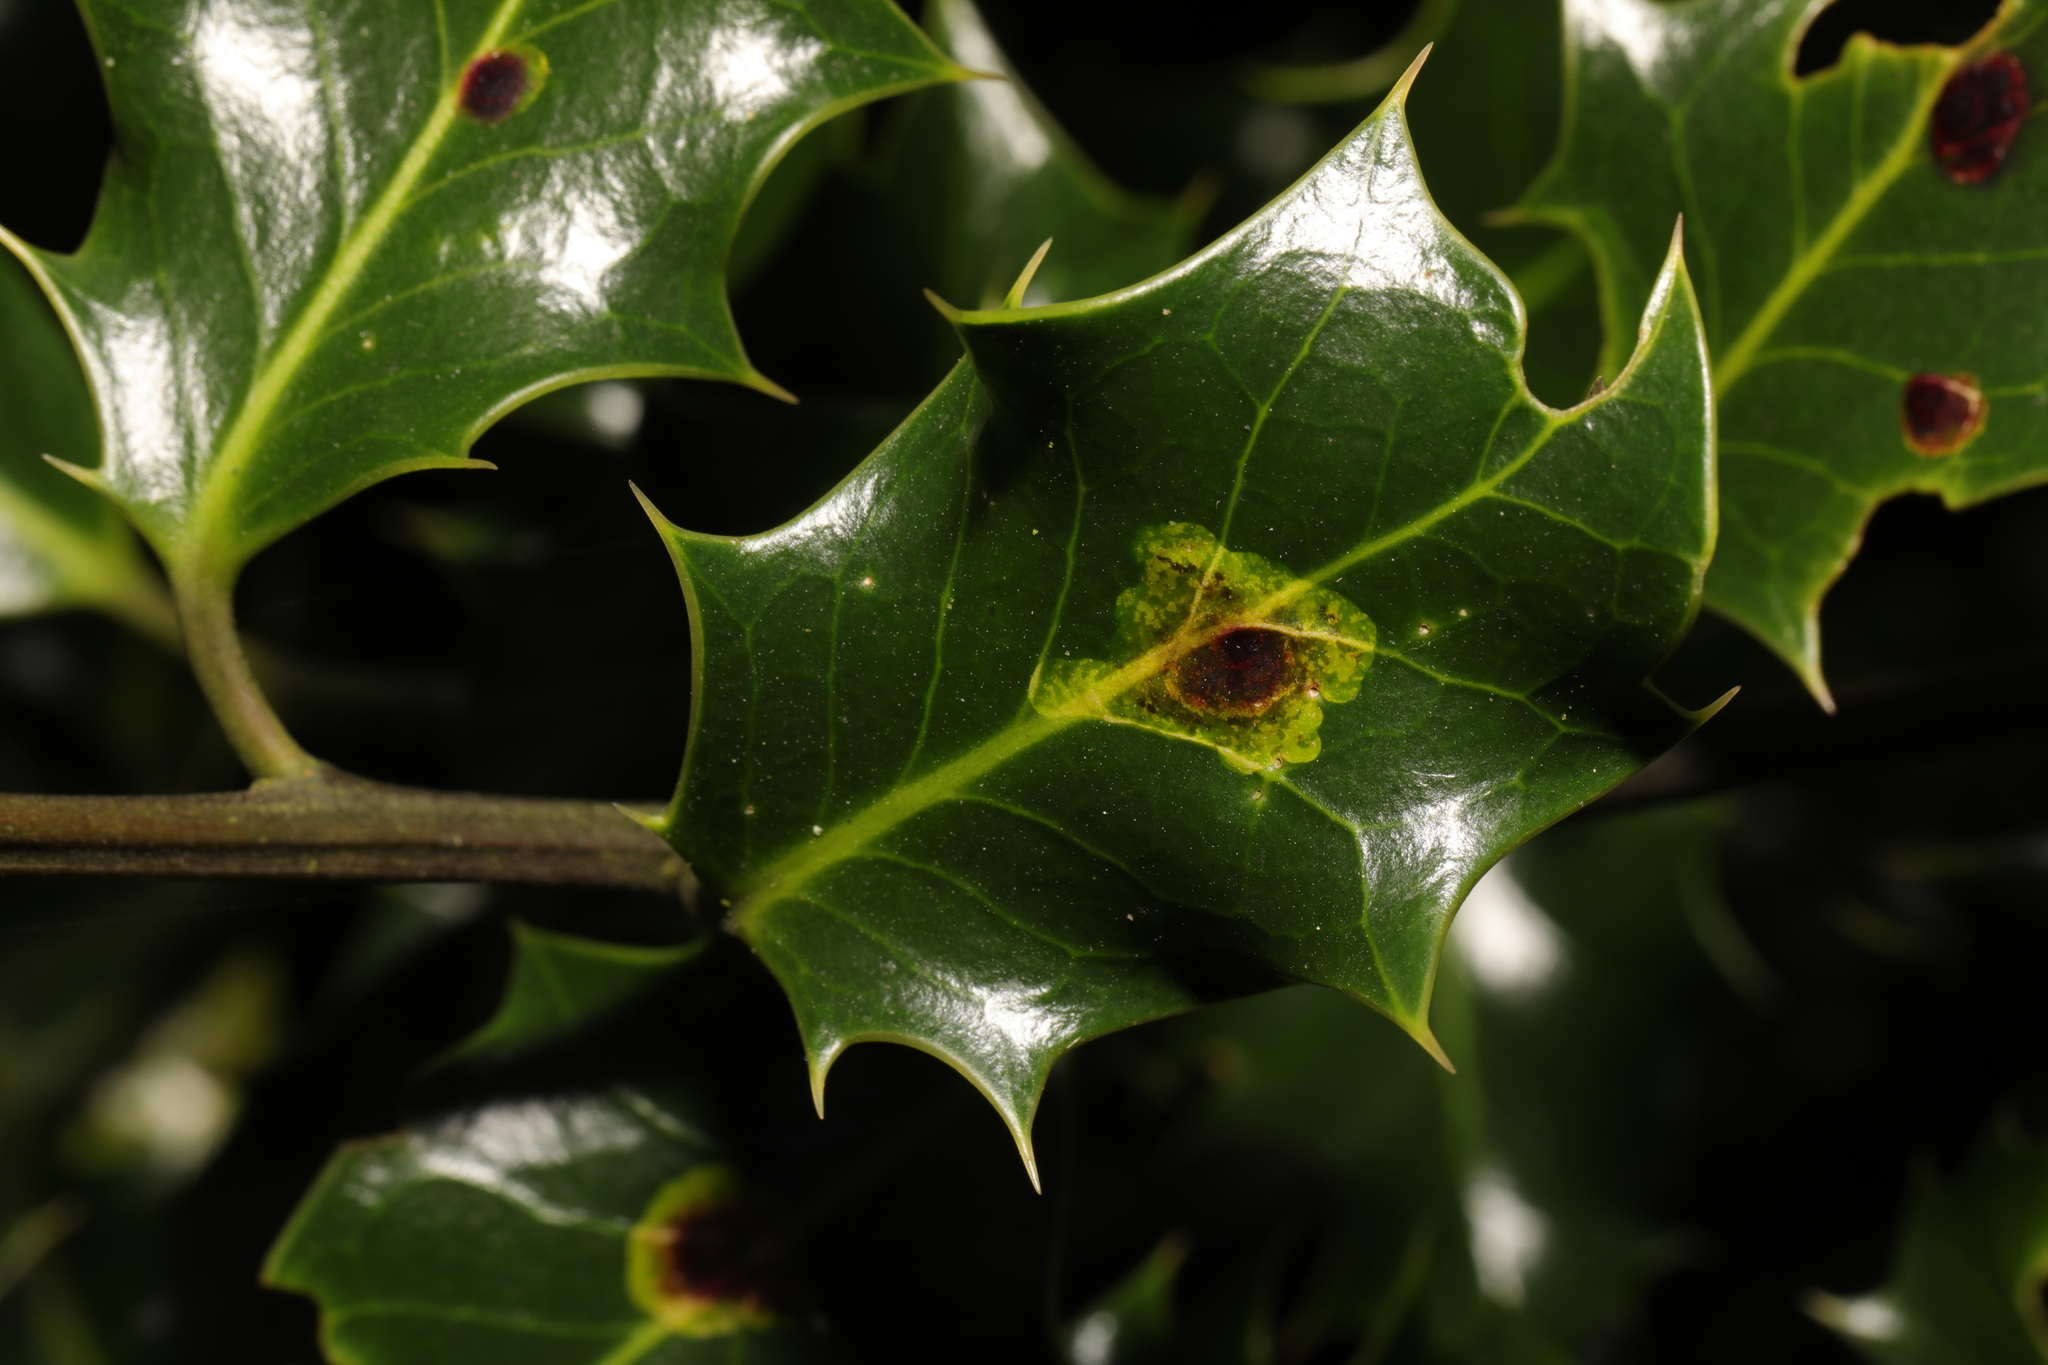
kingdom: Animalia
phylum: Arthropoda
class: Insecta
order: Diptera
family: Agromyzidae
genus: Phytomyza
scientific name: Phytomyza ilicis
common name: Holly leafminer
